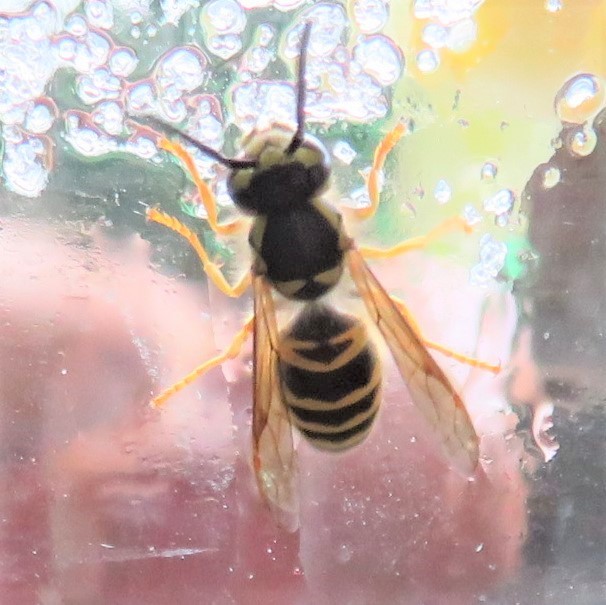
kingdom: Animalia
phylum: Arthropoda
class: Insecta
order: Hymenoptera
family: Vespidae
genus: Vespula
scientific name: Vespula maculifrons
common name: Eastern yellowjacket
